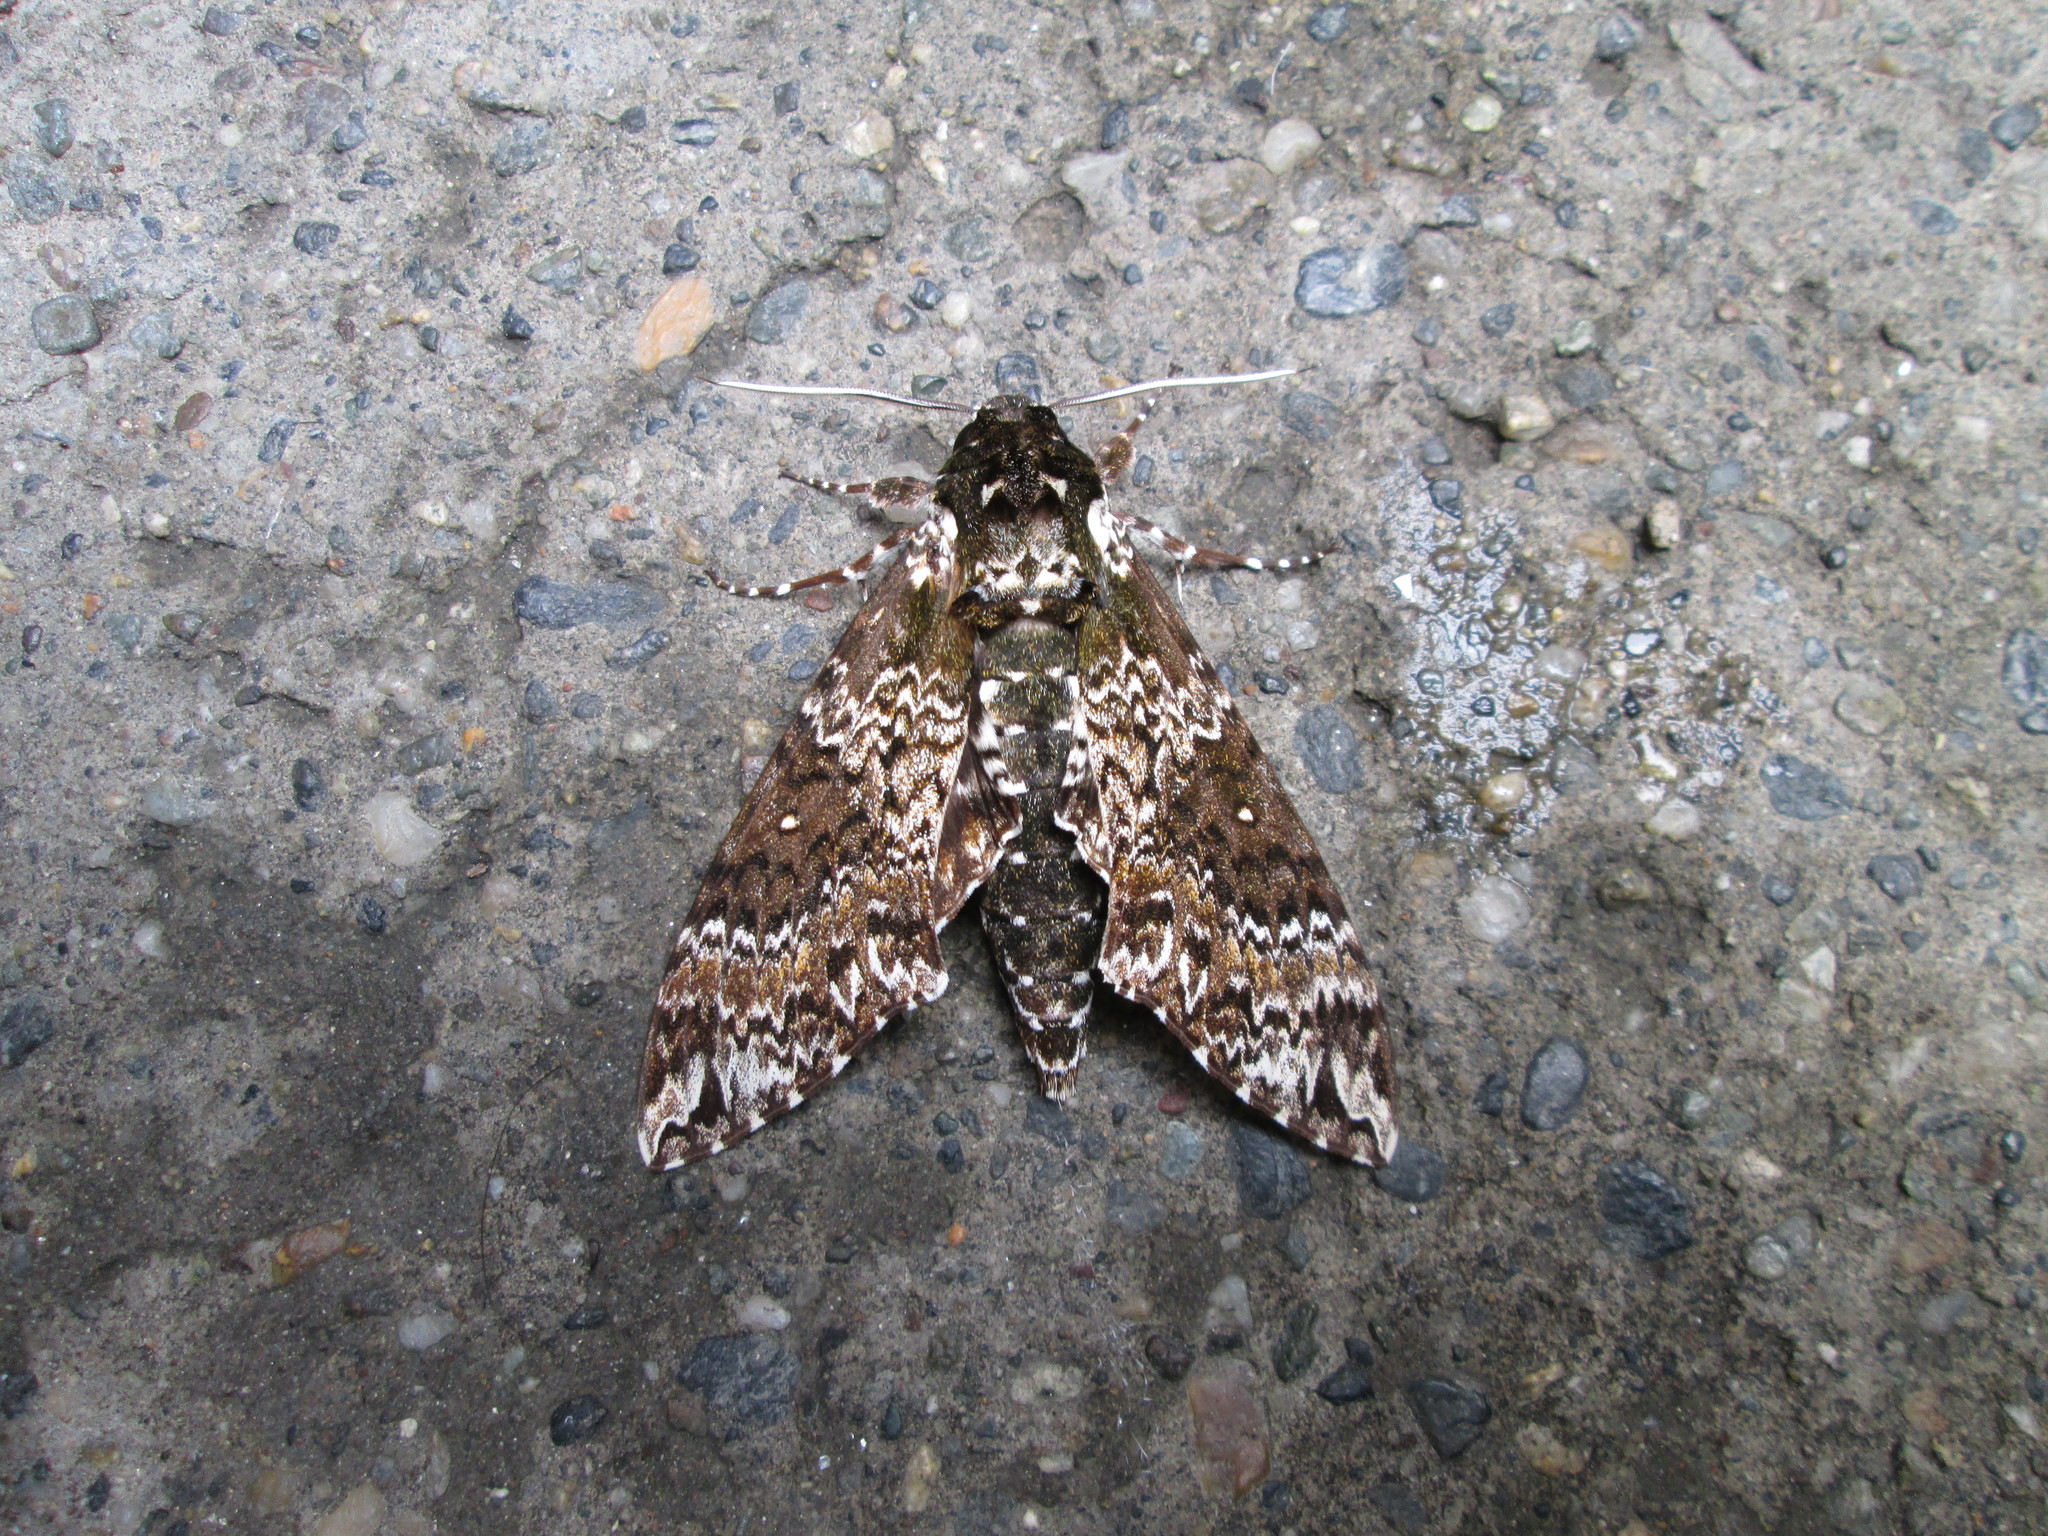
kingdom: Animalia
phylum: Arthropoda
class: Insecta
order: Lepidoptera
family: Sphingidae
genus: Manduca
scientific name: Manduca rustica
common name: Rustic sphinx
